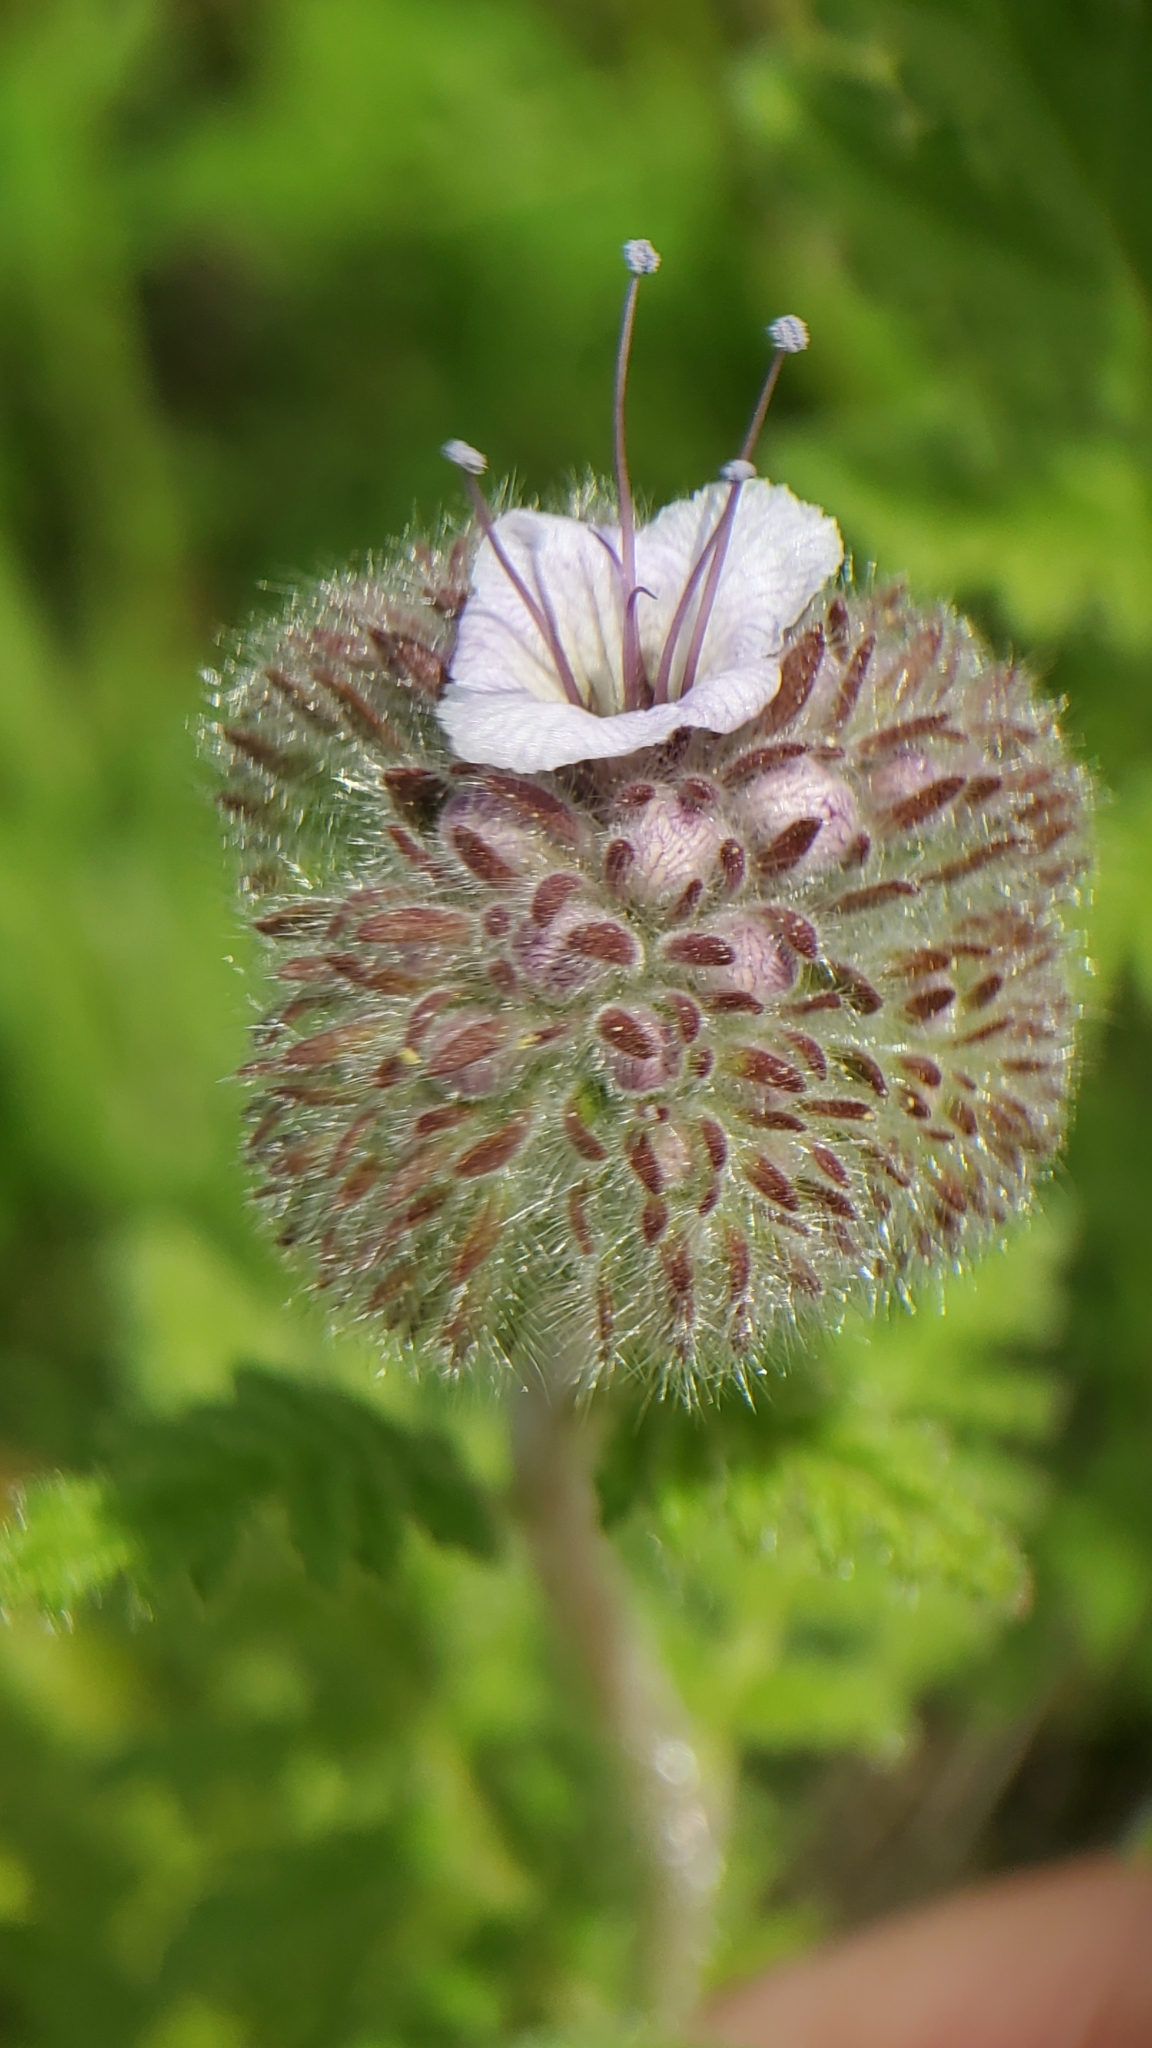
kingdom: Plantae
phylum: Tracheophyta
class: Magnoliopsida
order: Boraginales
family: Hydrophyllaceae
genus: Phacelia
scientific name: Phacelia hubbyi
